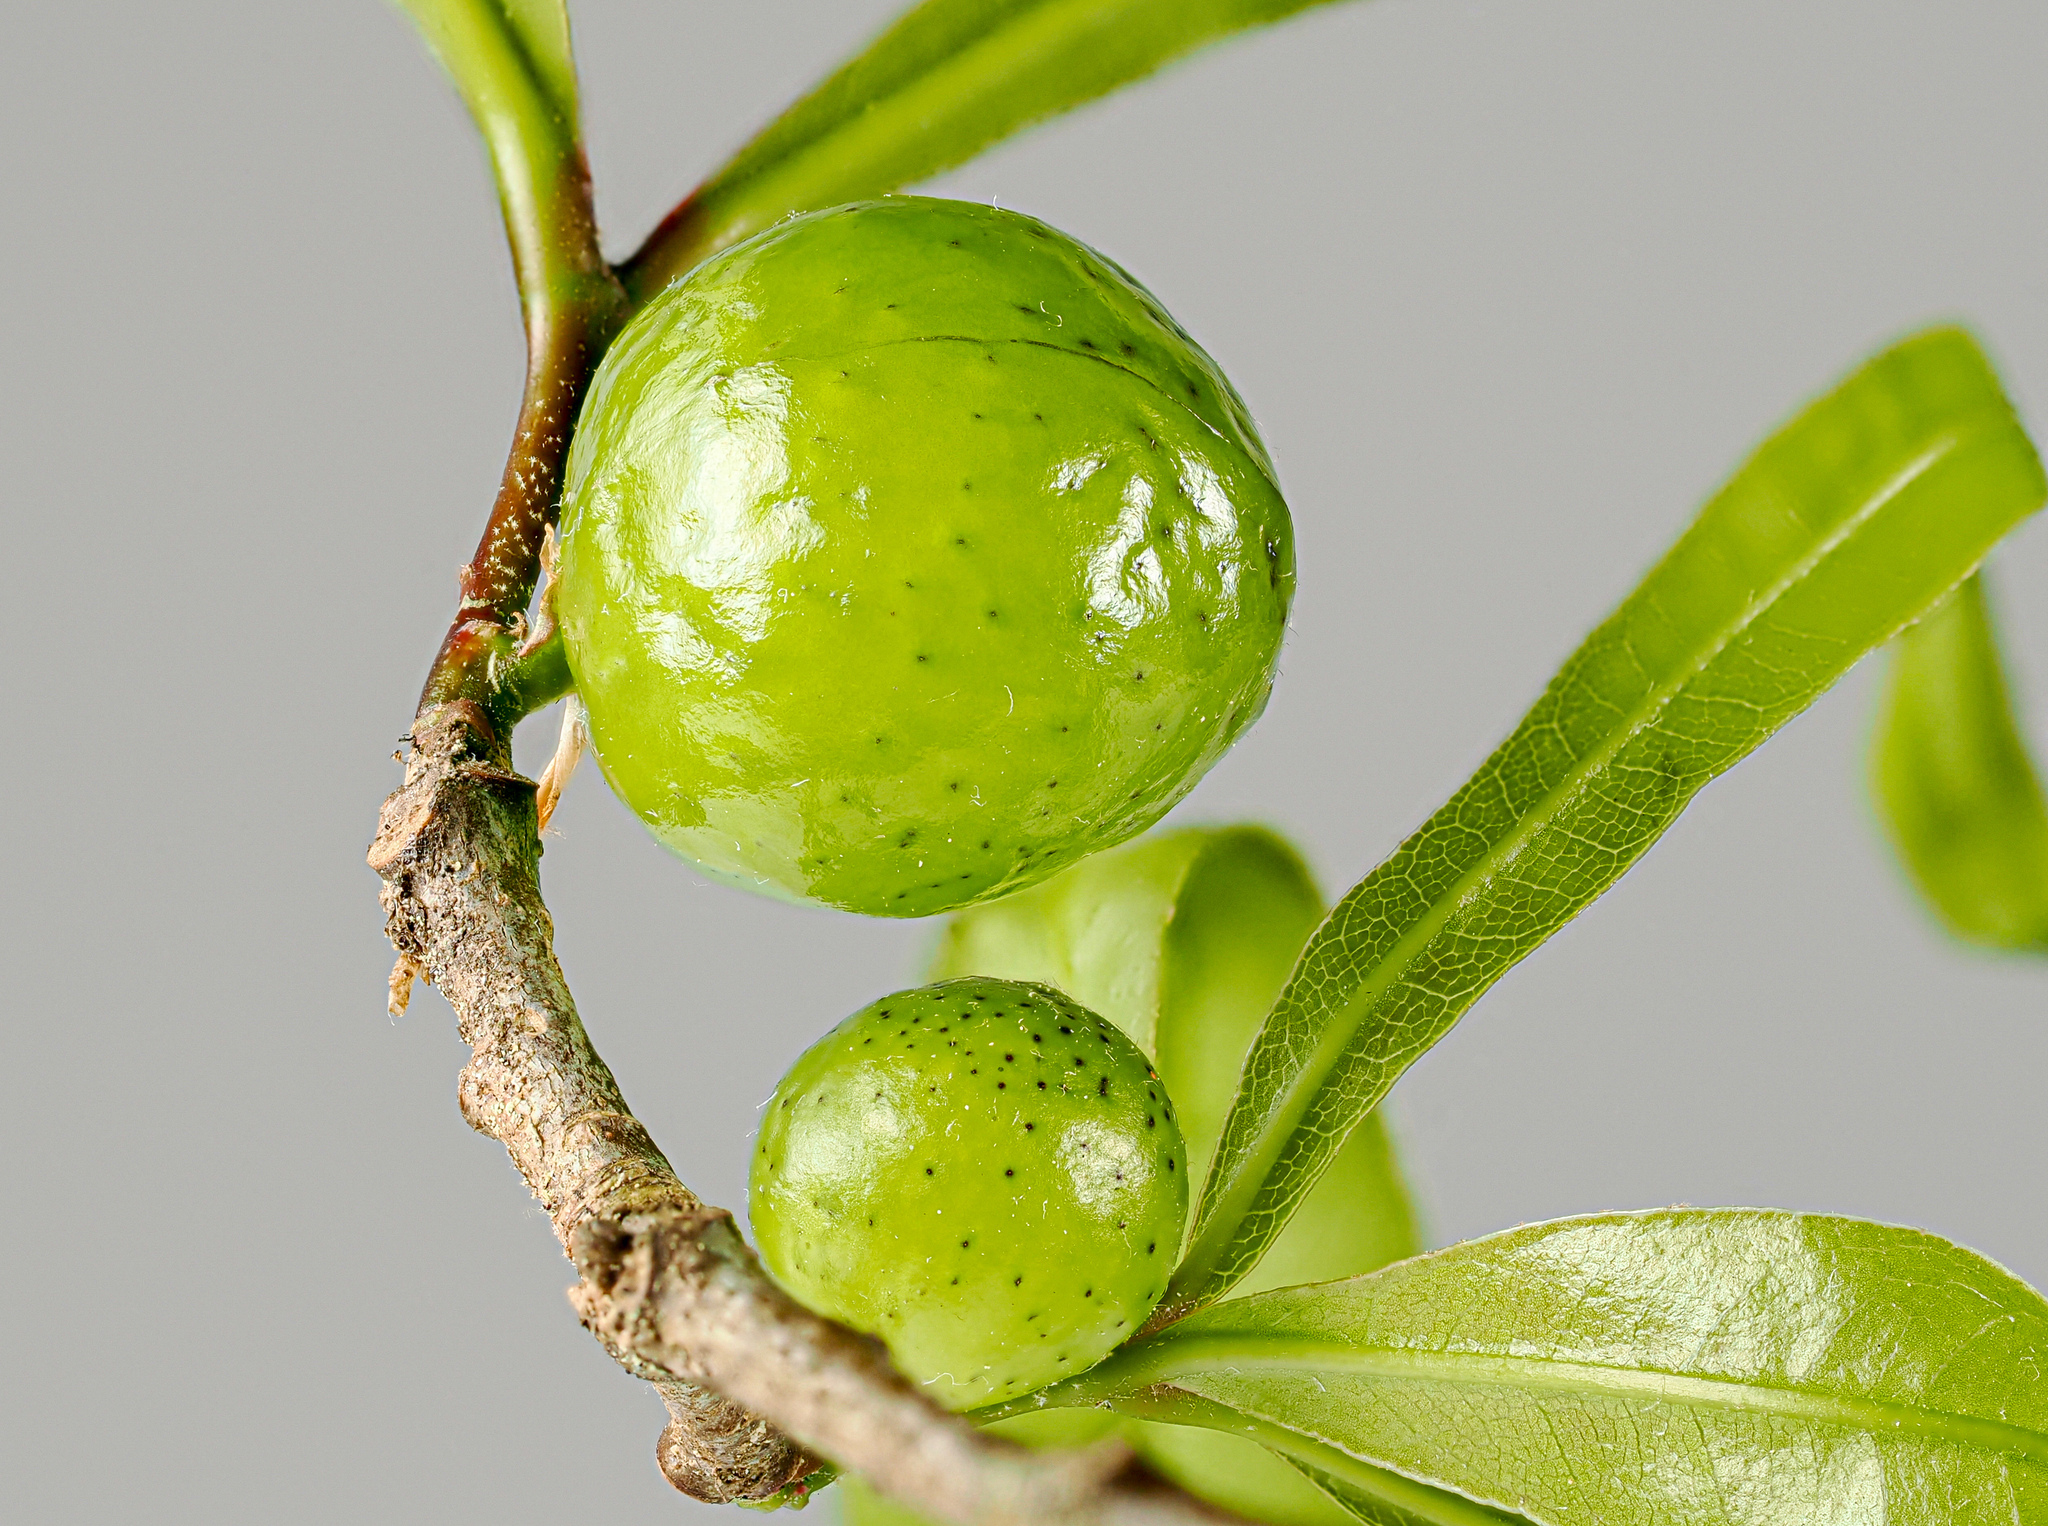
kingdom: Animalia
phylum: Arthropoda
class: Insecta
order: Hymenoptera
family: Cynipidae
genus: Amphibolips
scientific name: Amphibolips
